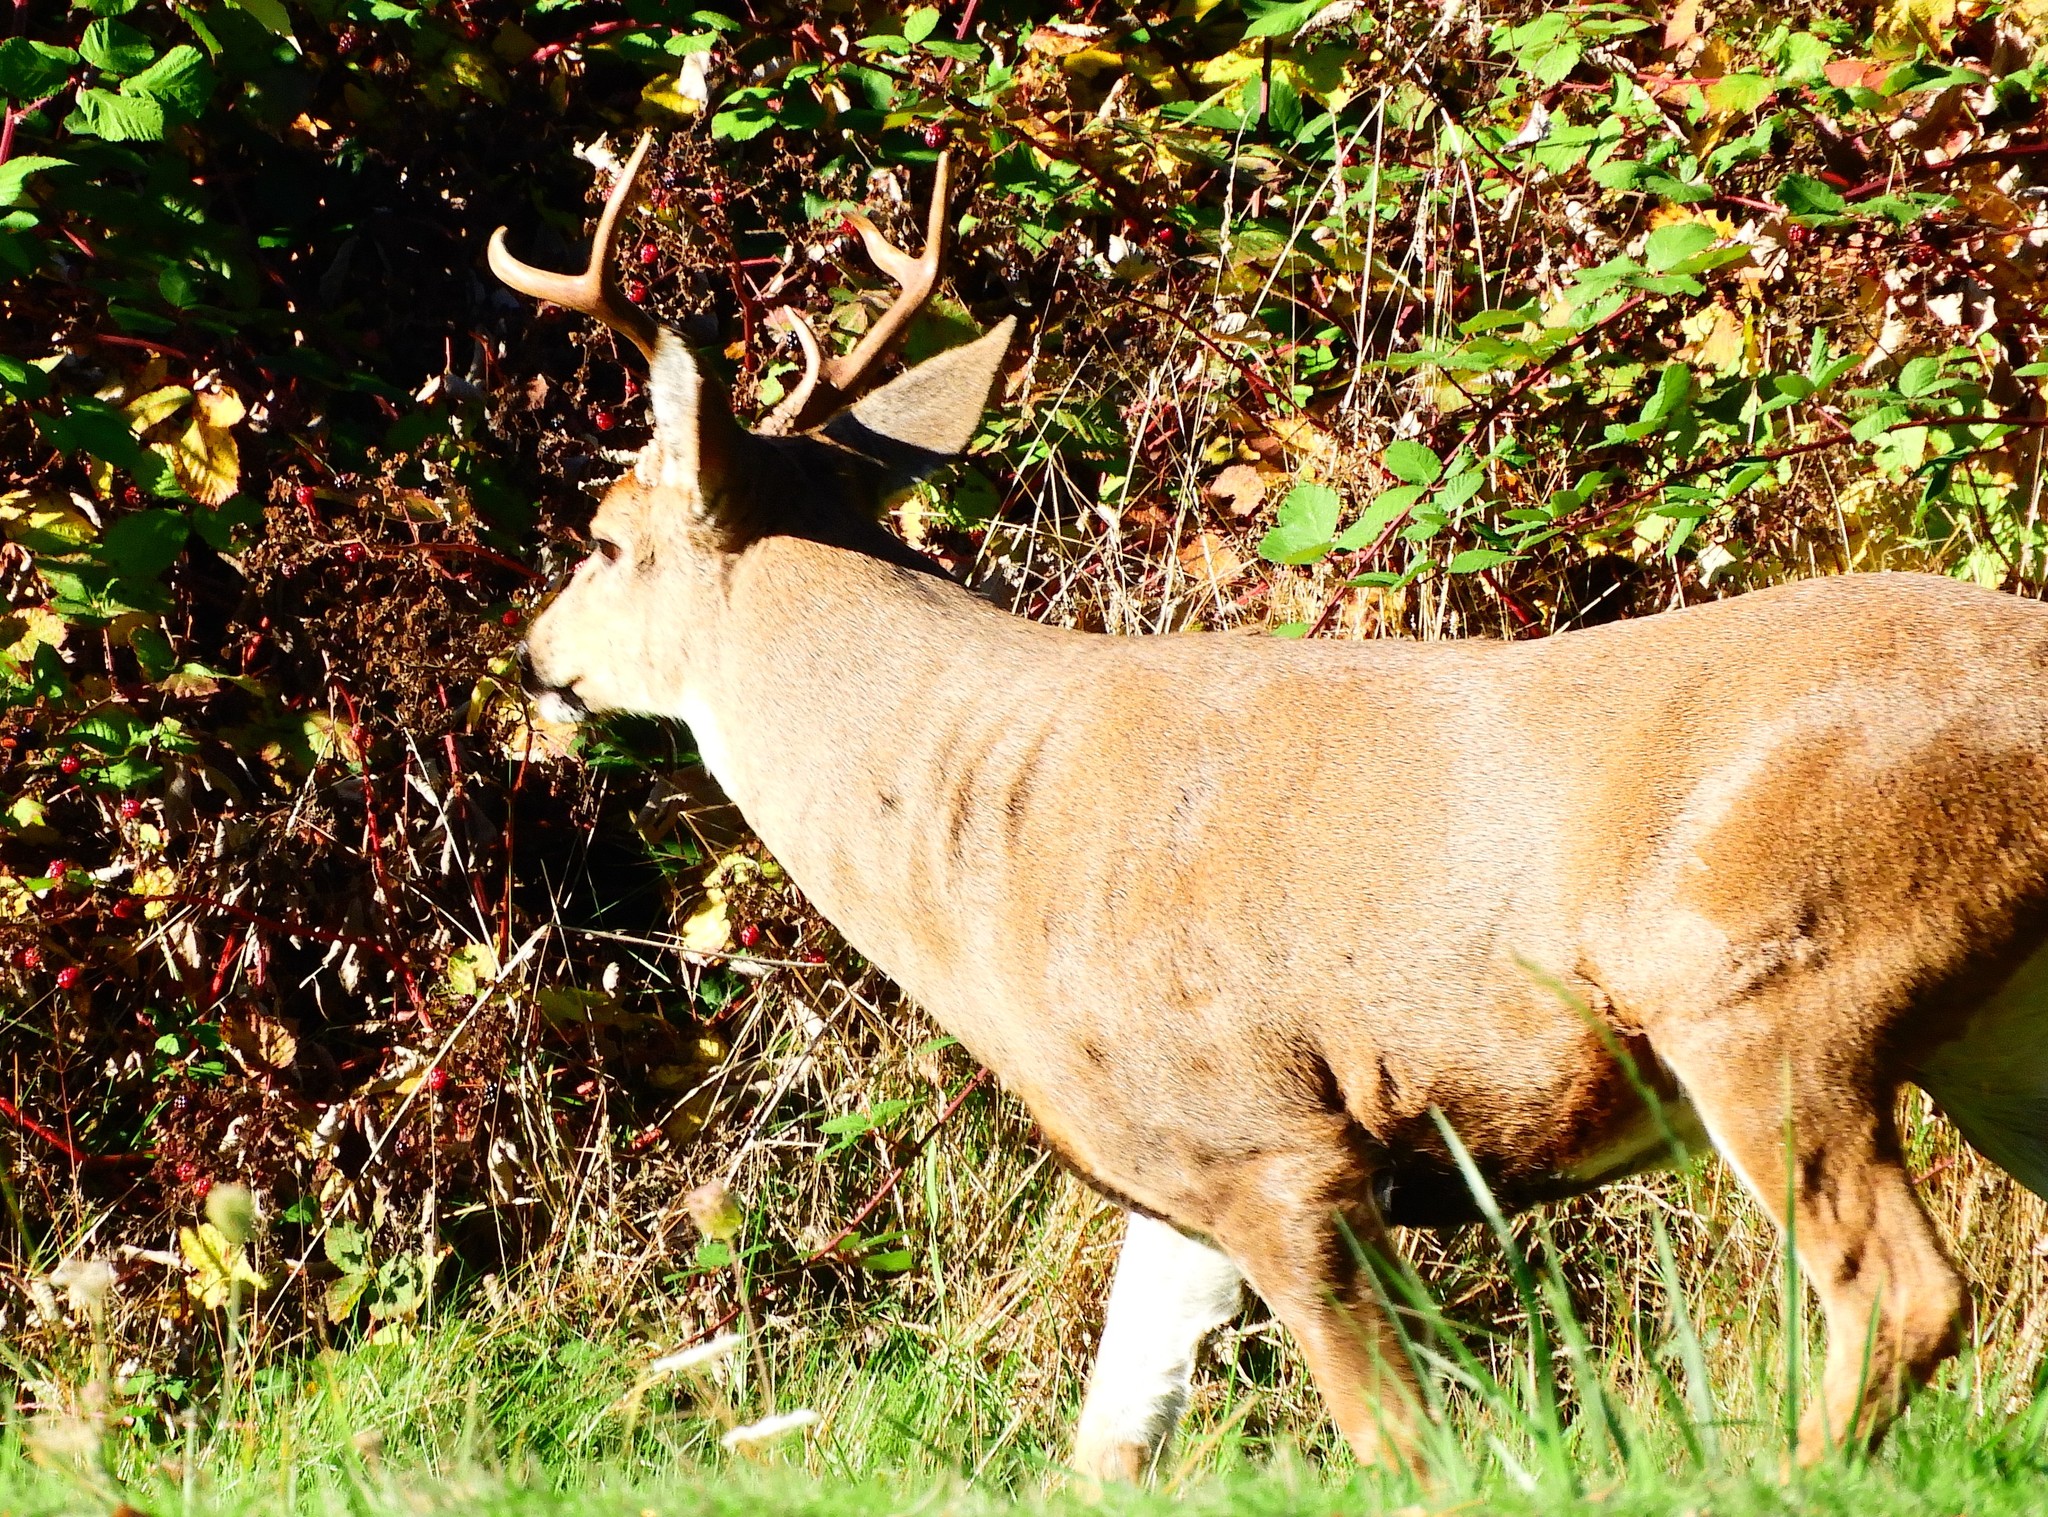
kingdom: Animalia
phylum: Chordata
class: Mammalia
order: Artiodactyla
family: Cervidae
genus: Odocoileus
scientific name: Odocoileus hemionus
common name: Mule deer
